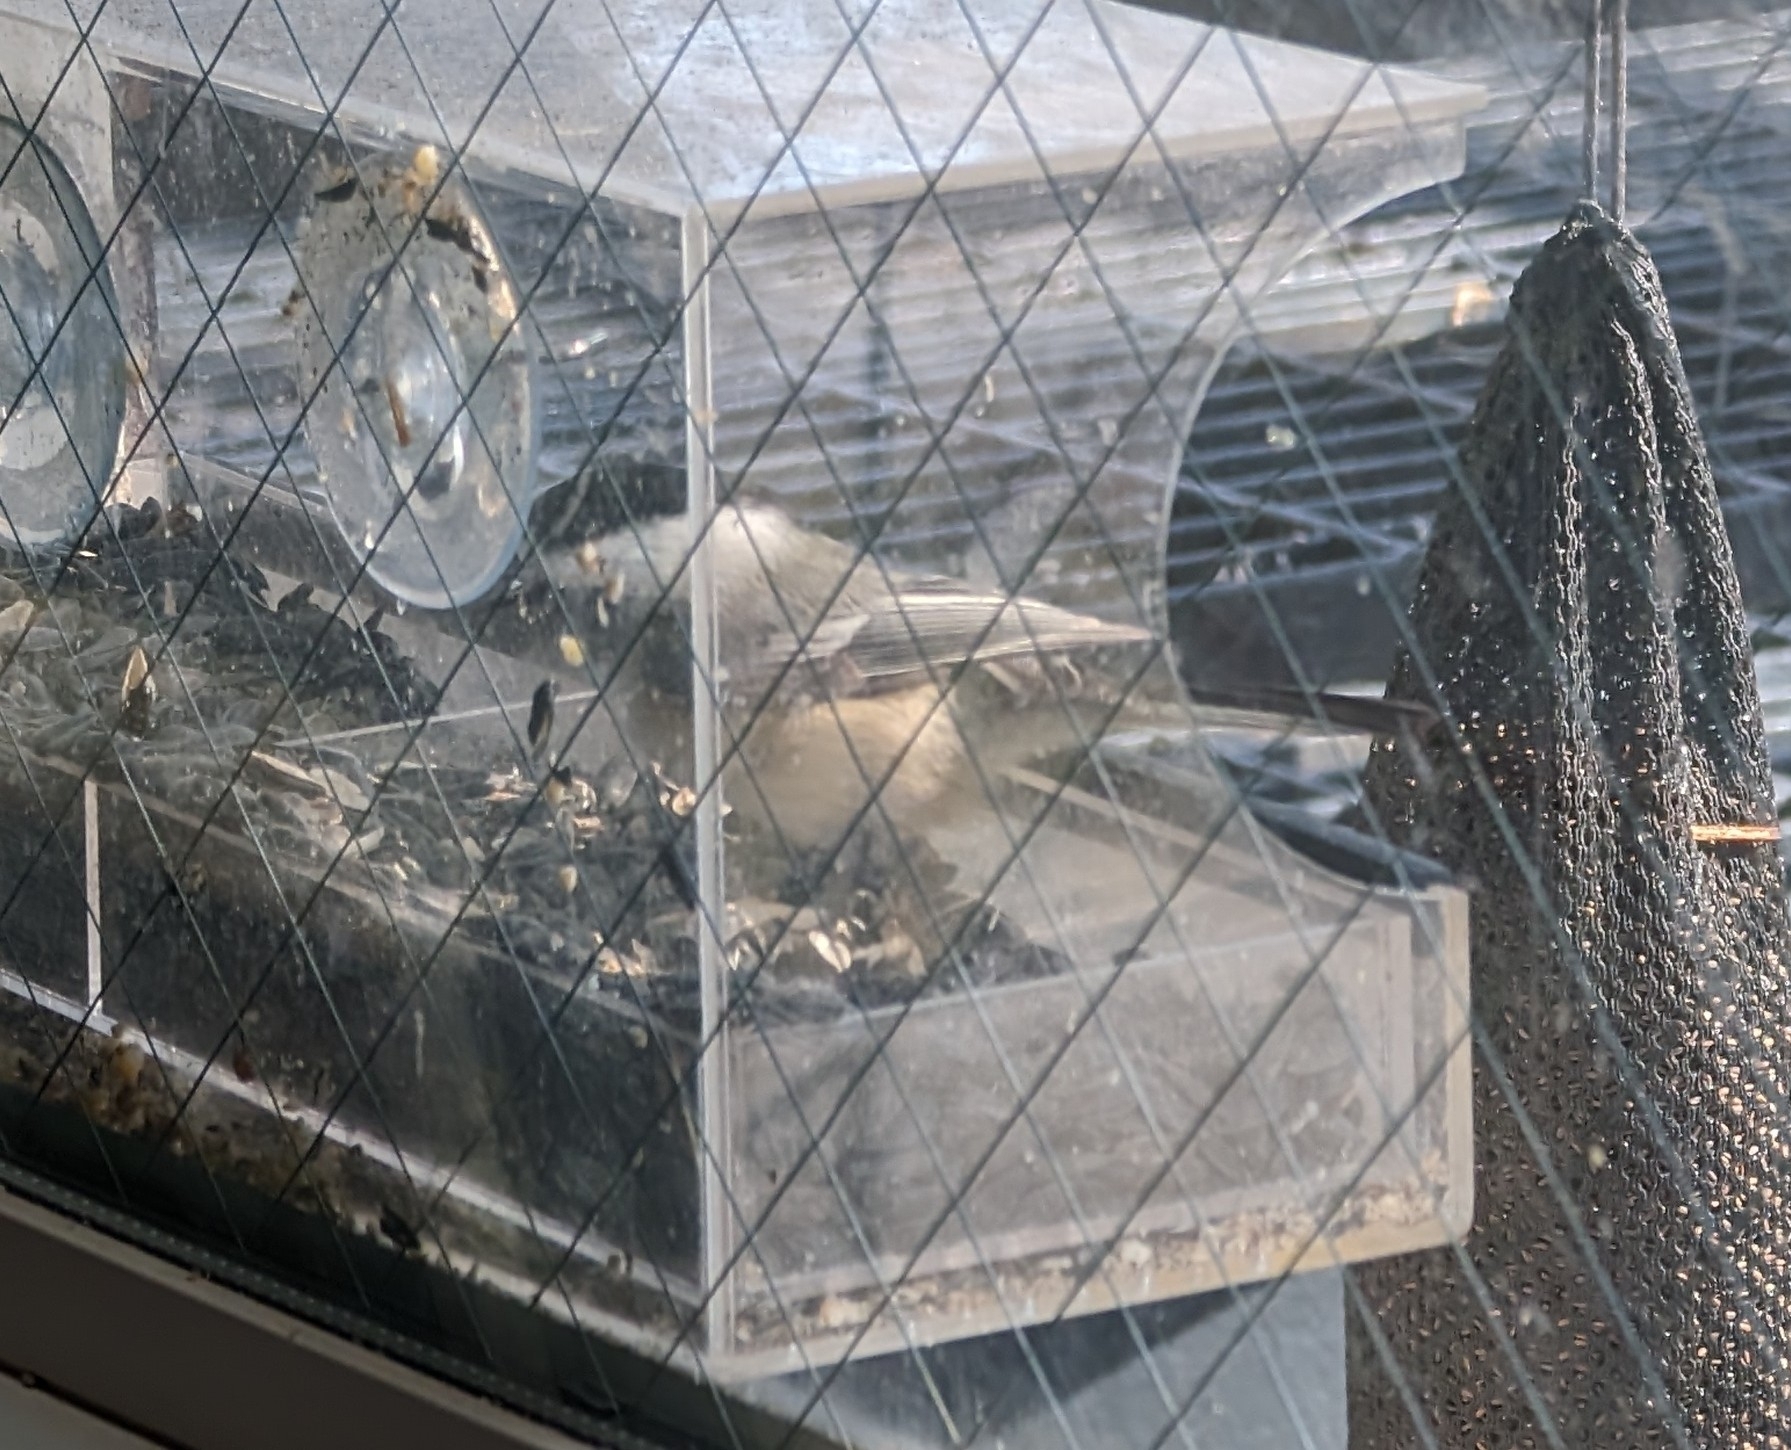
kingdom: Animalia
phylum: Chordata
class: Aves
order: Passeriformes
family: Paridae
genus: Poecile
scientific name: Poecile atricapillus
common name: Black-capped chickadee
